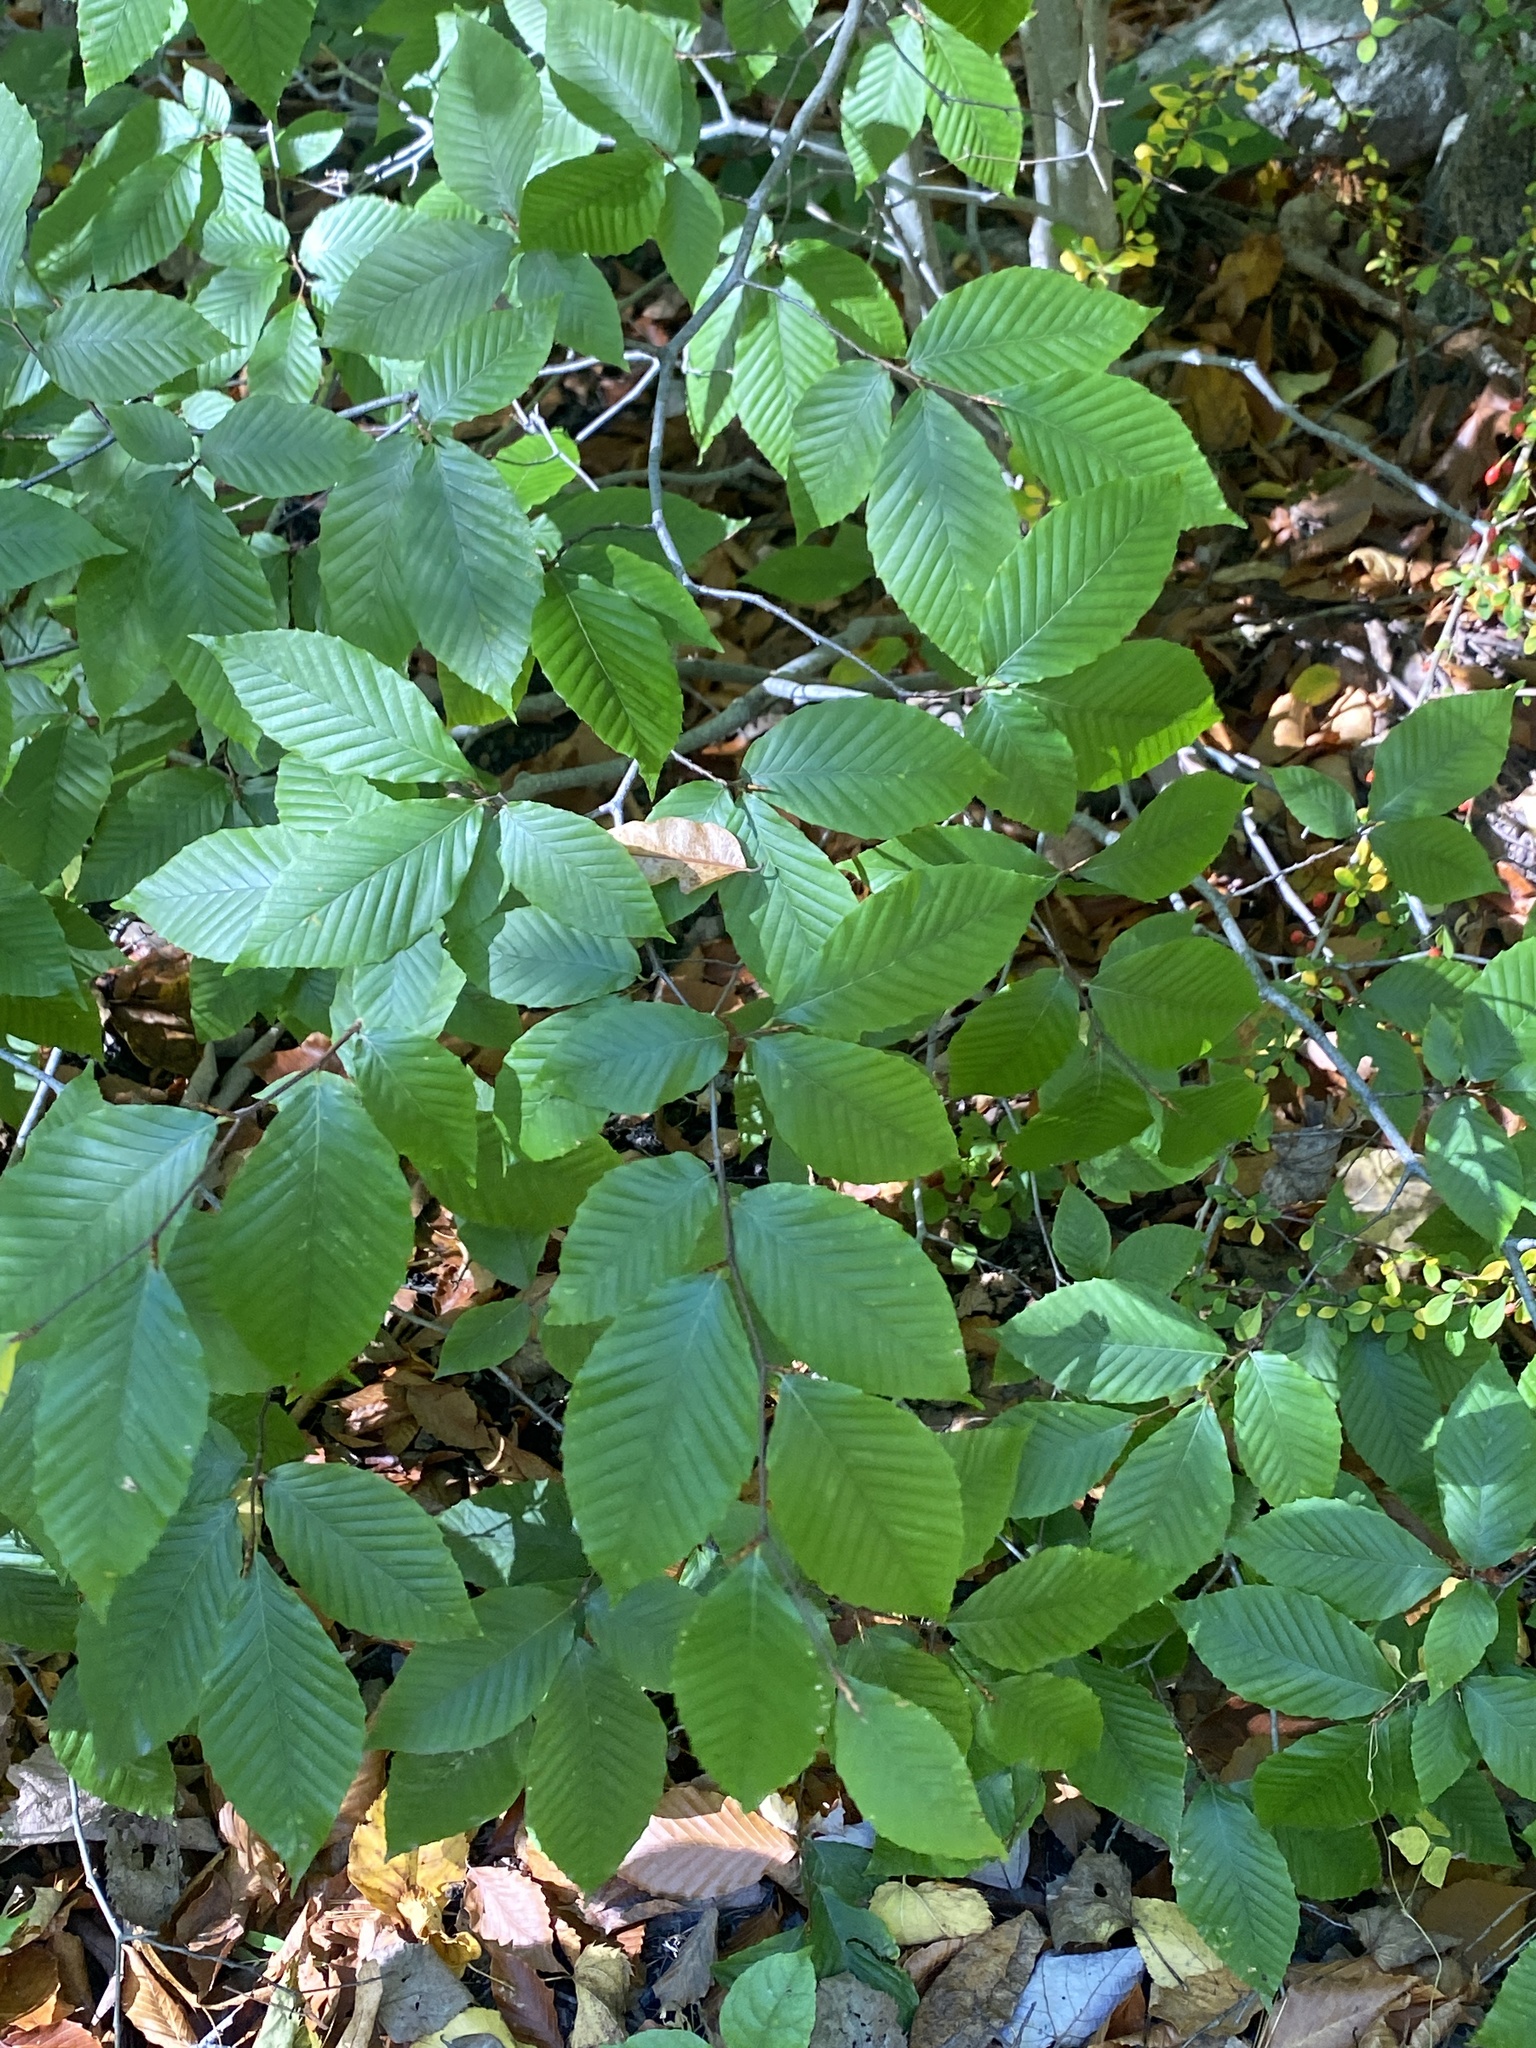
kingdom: Plantae
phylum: Tracheophyta
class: Magnoliopsida
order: Fagales
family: Fagaceae
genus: Fagus
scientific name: Fagus grandifolia
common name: American beech
